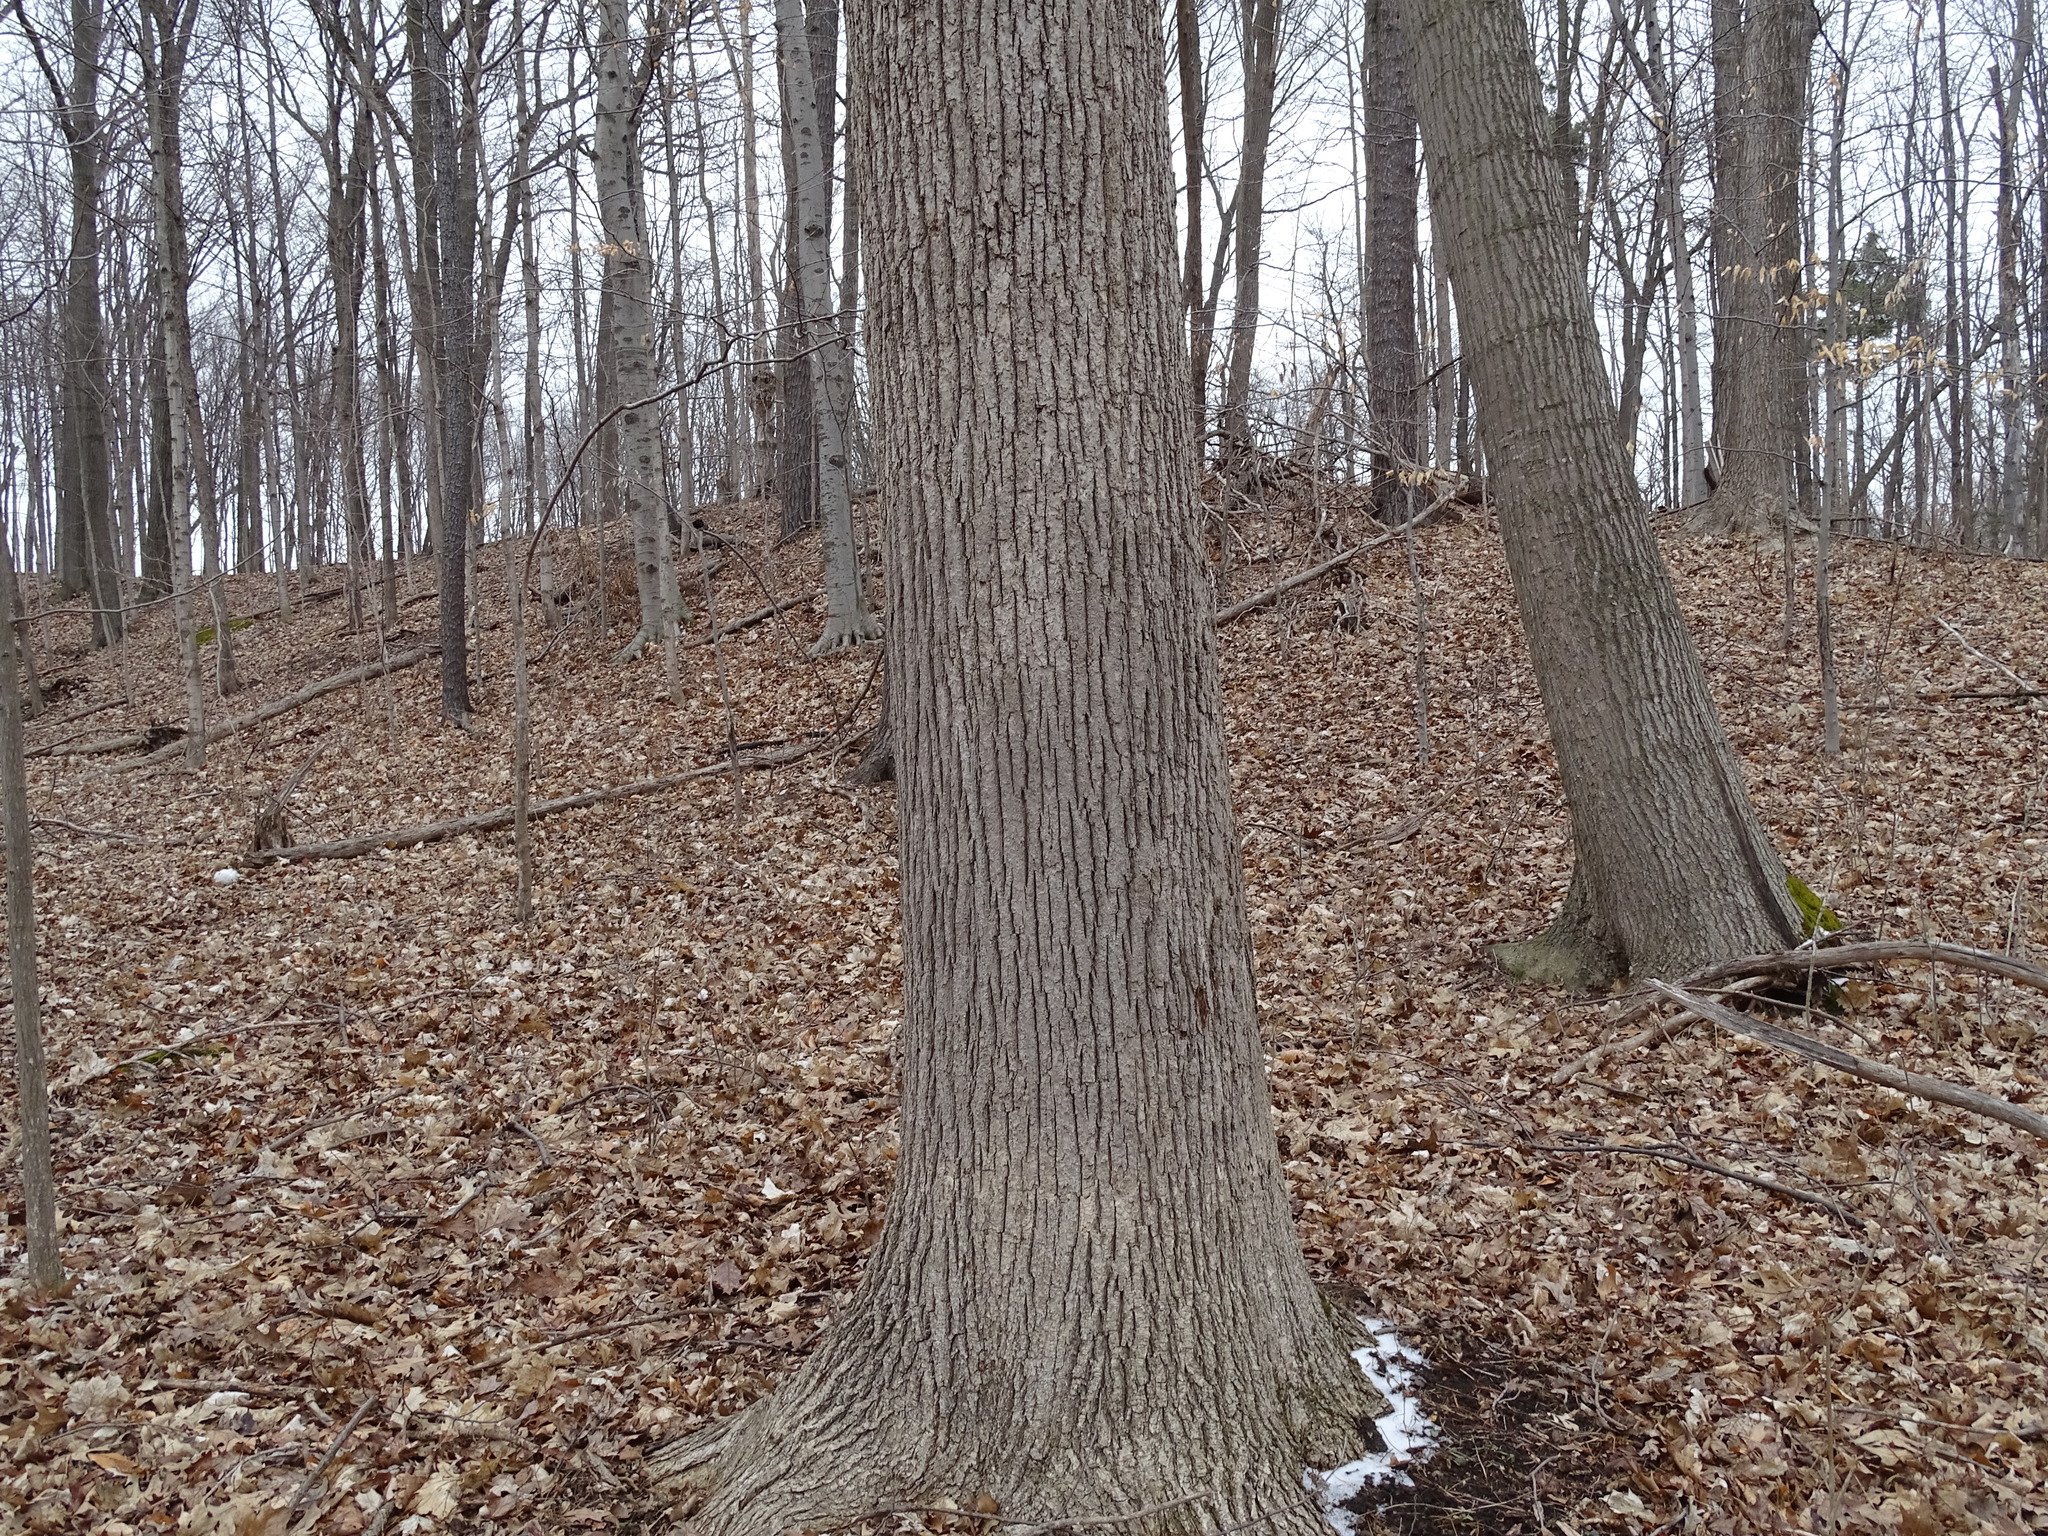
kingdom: Plantae
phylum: Tracheophyta
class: Magnoliopsida
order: Malvales
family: Malvaceae
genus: Tilia
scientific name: Tilia americana
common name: Basswood
